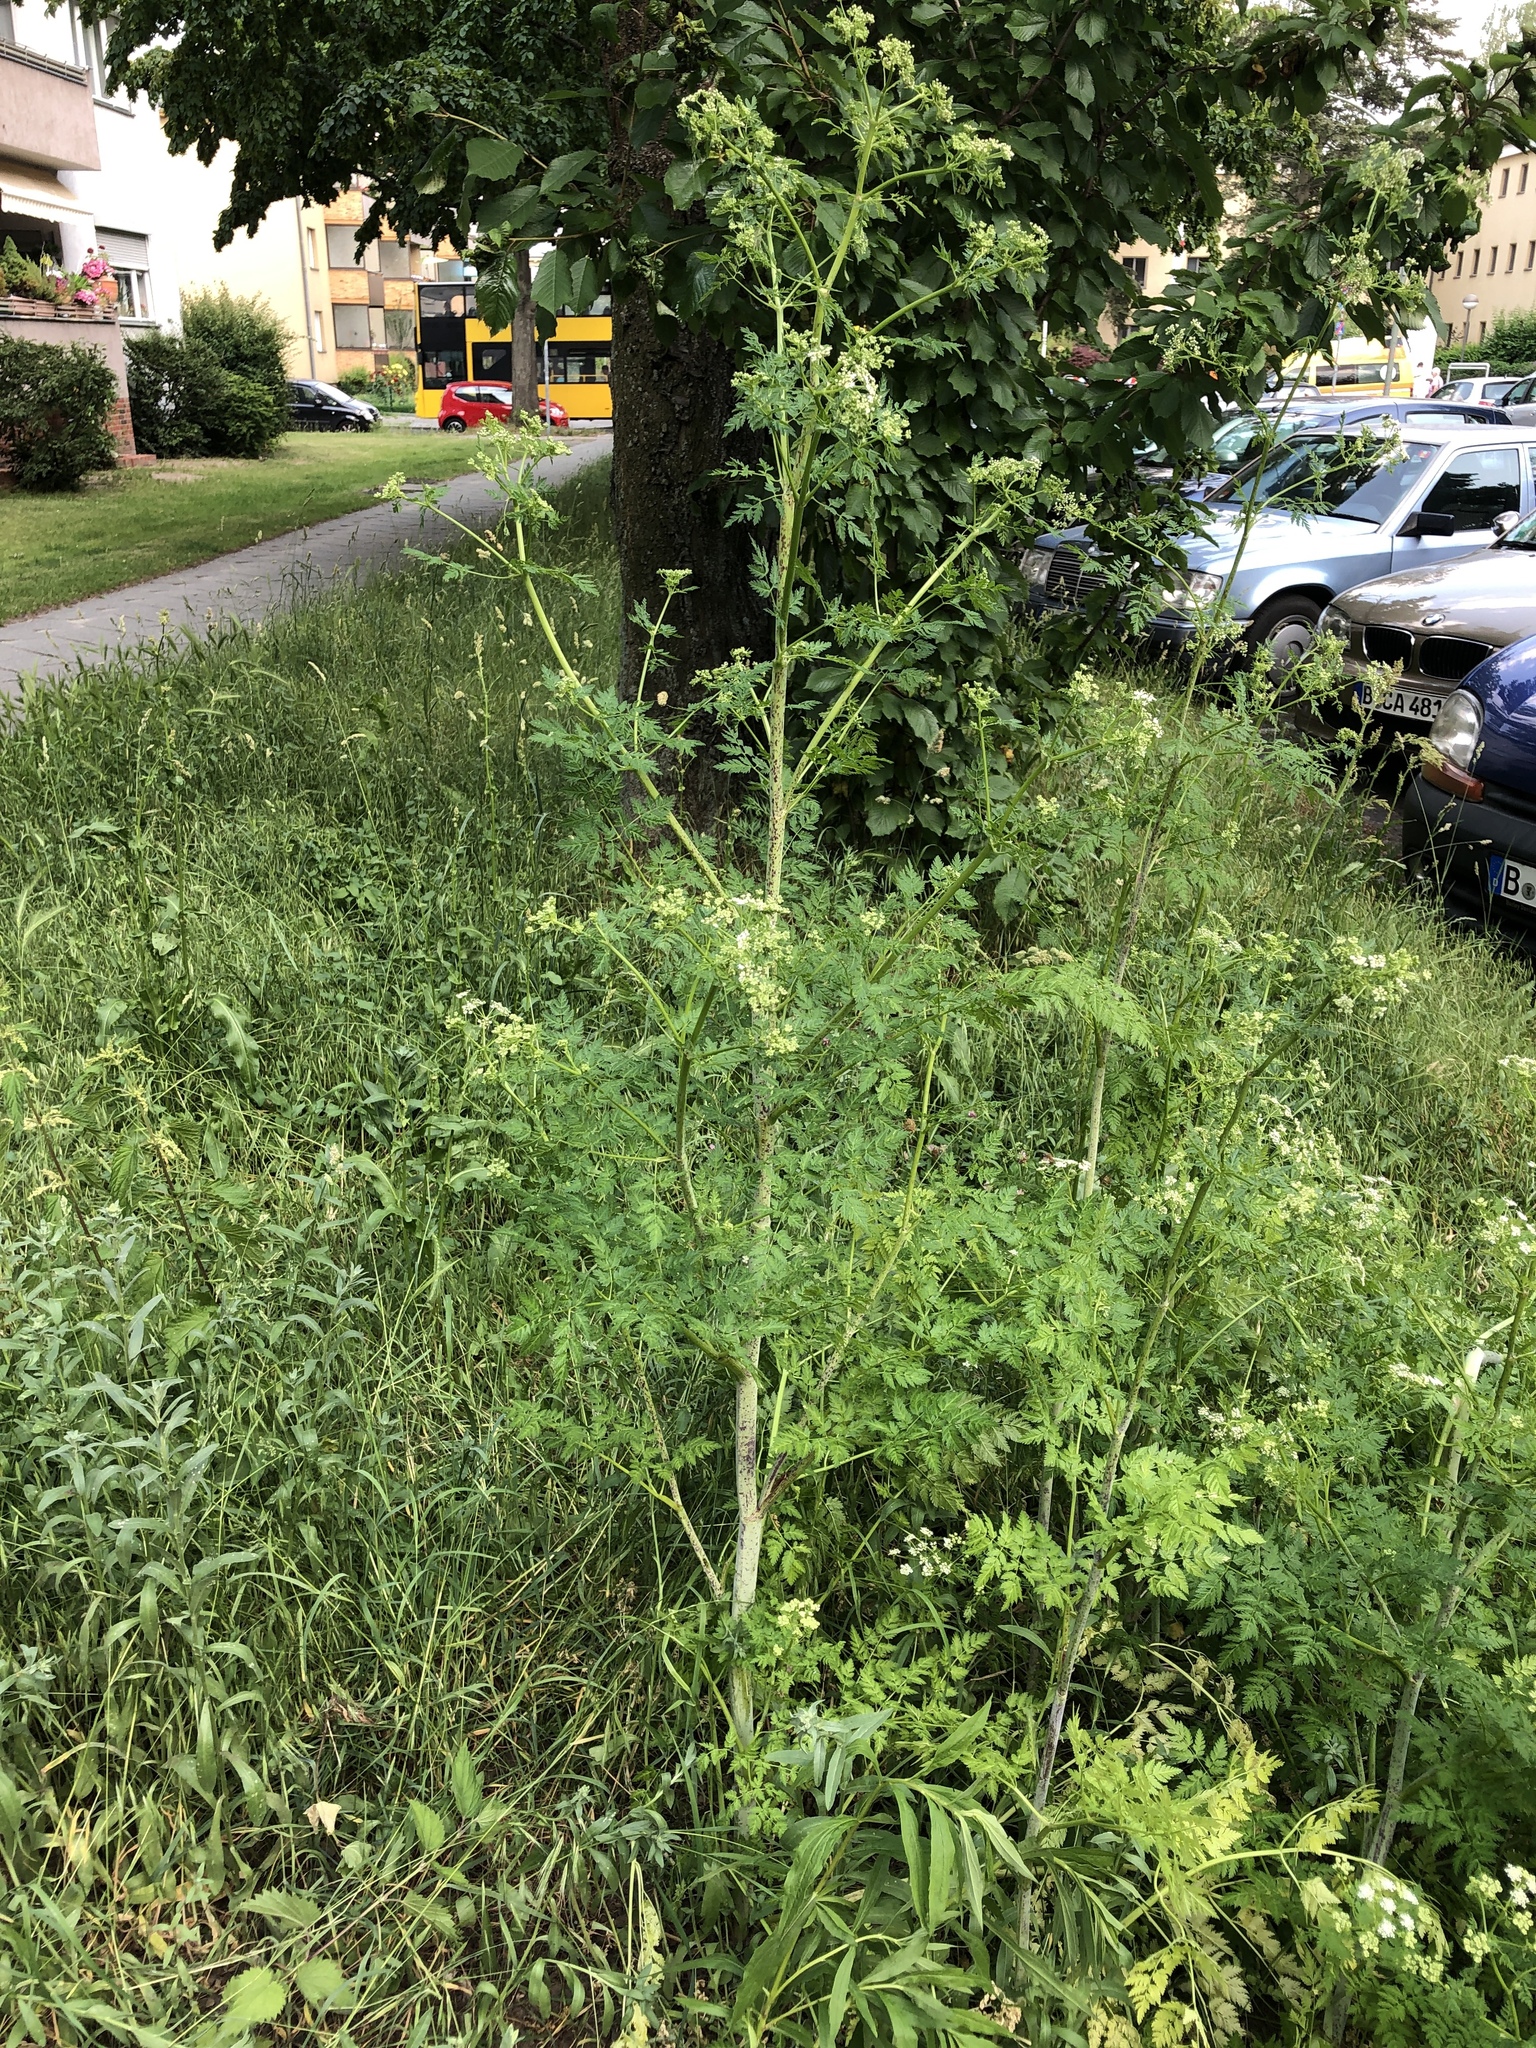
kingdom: Plantae
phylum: Tracheophyta
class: Magnoliopsida
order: Apiales
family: Apiaceae
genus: Conium
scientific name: Conium maculatum
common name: Hemlock
